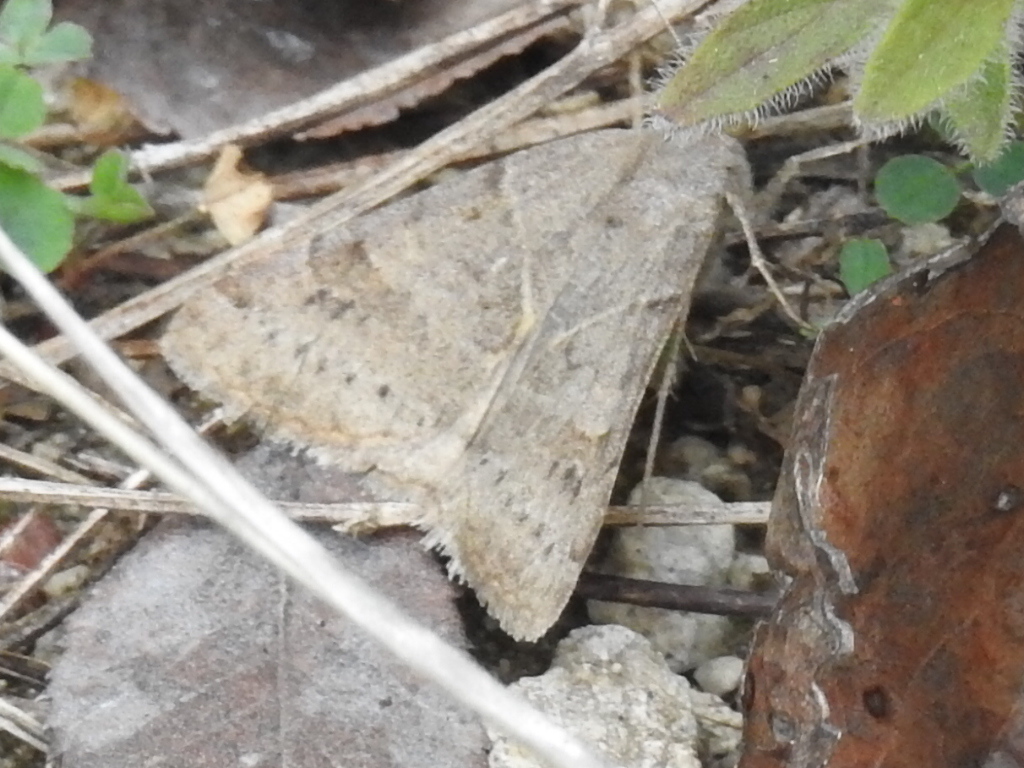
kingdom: Animalia
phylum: Arthropoda
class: Insecta
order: Lepidoptera
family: Erebidae
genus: Caenurgina
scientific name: Caenurgina erechtea
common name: Forage looper moth
